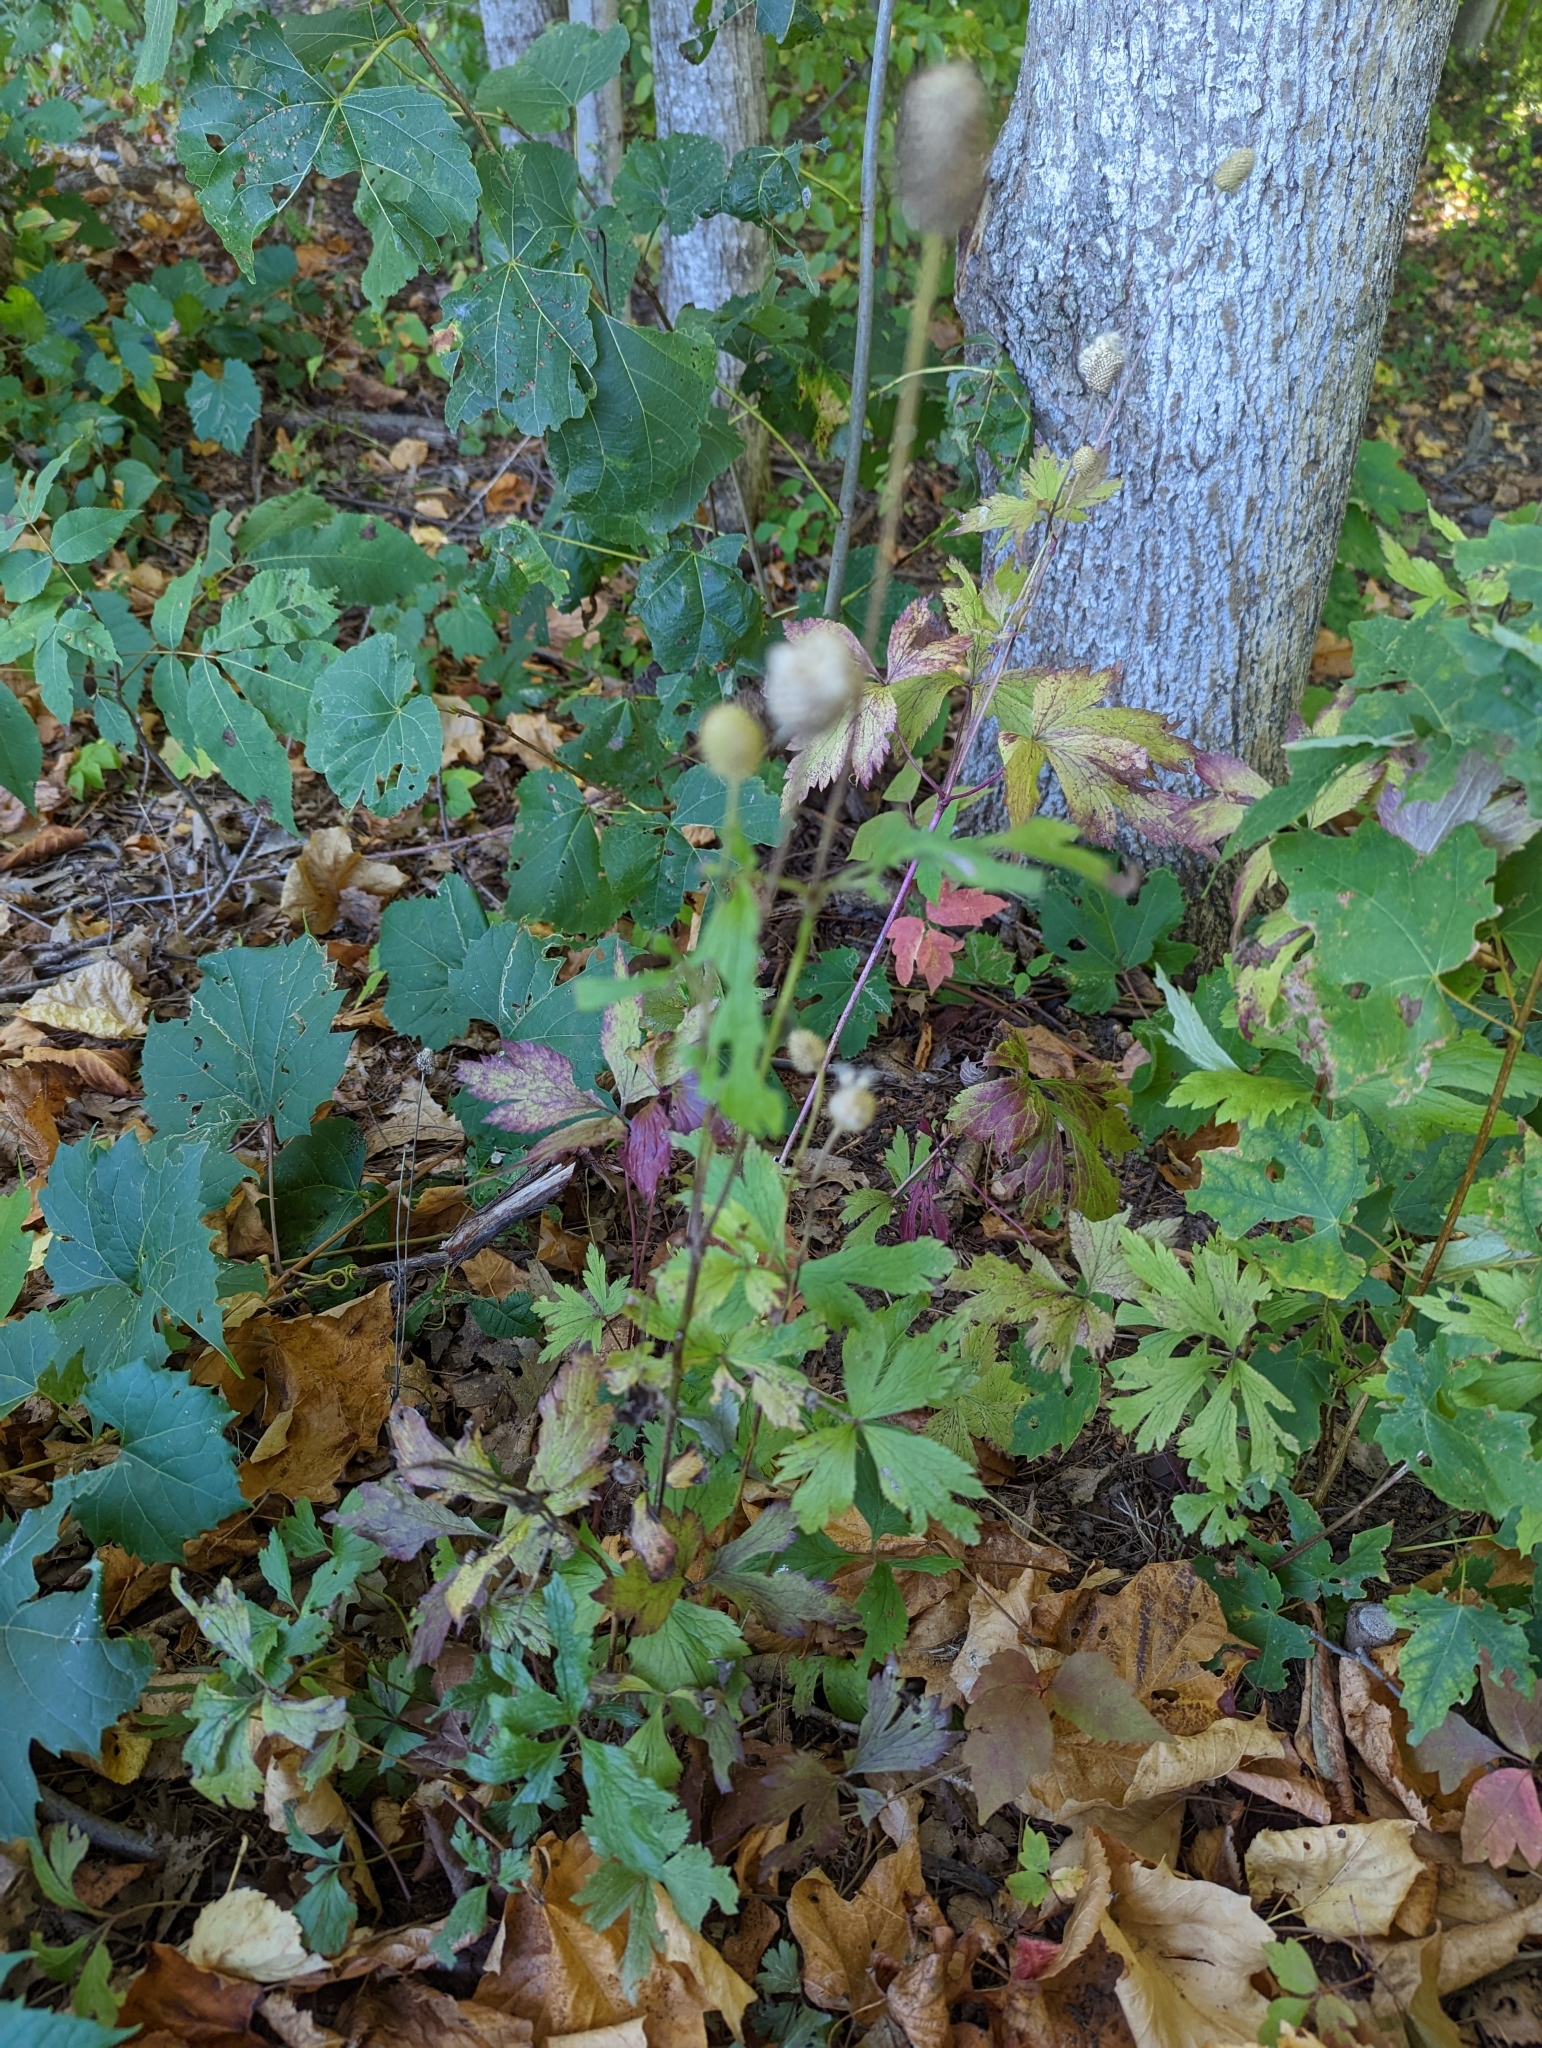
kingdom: Plantae
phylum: Tracheophyta
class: Magnoliopsida
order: Ranunculales
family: Ranunculaceae
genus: Anemone
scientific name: Anemone virginiana
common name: Tall anemone
